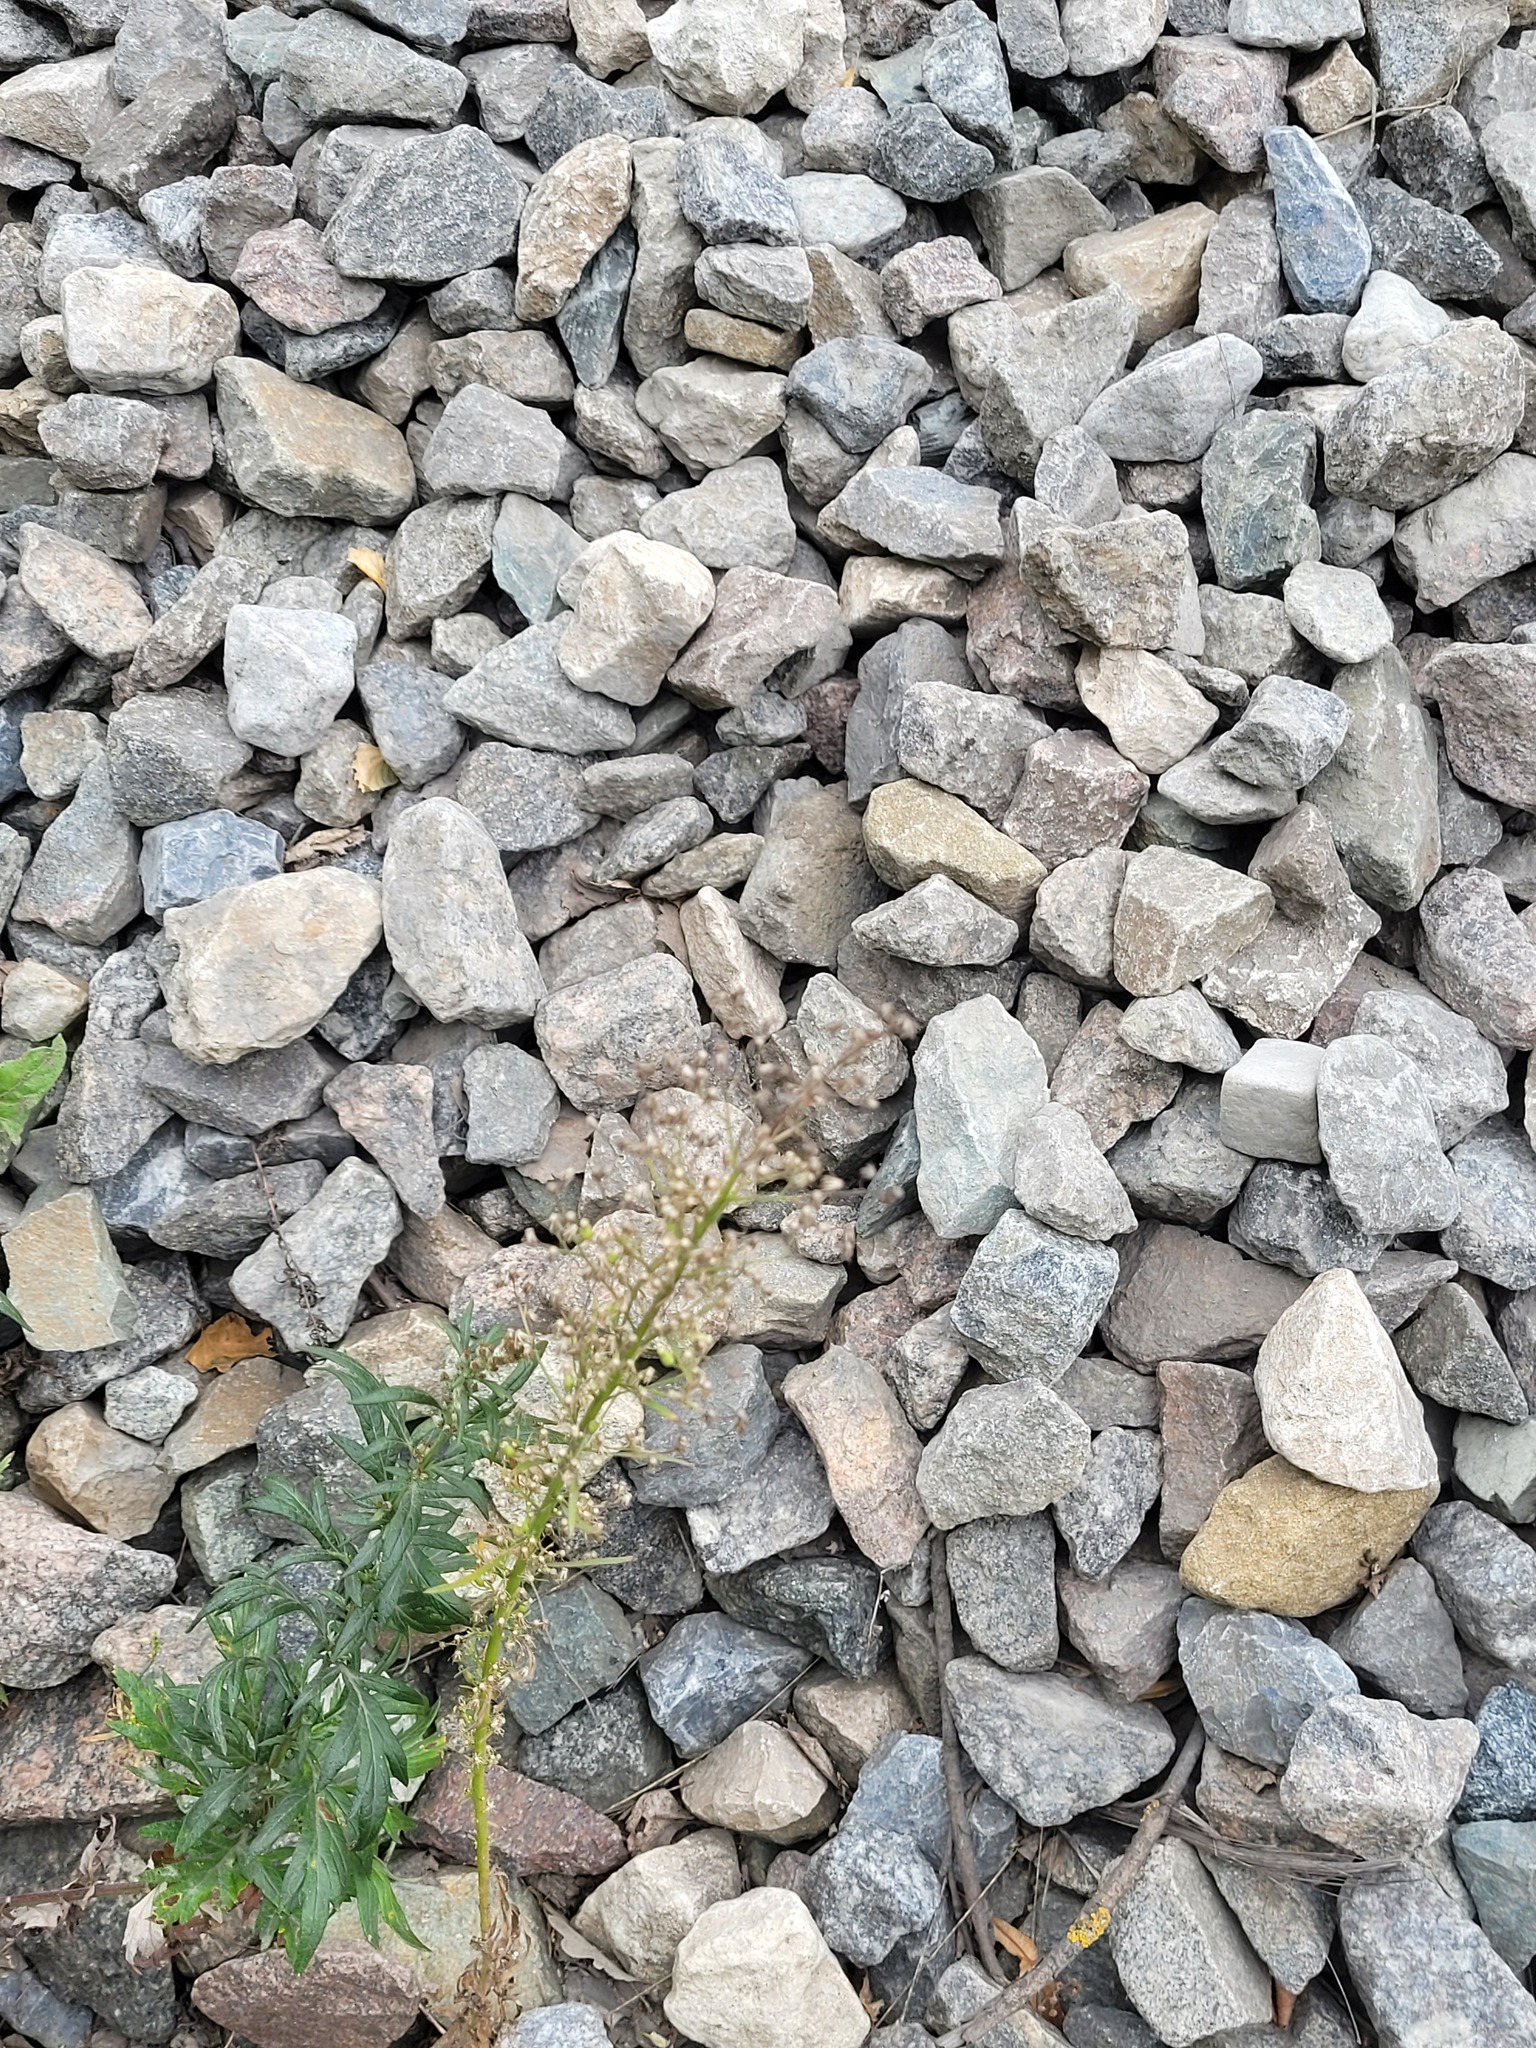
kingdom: Plantae
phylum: Tracheophyta
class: Magnoliopsida
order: Asterales
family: Asteraceae
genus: Erigeron
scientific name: Erigeron canadensis
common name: Canadian fleabane
